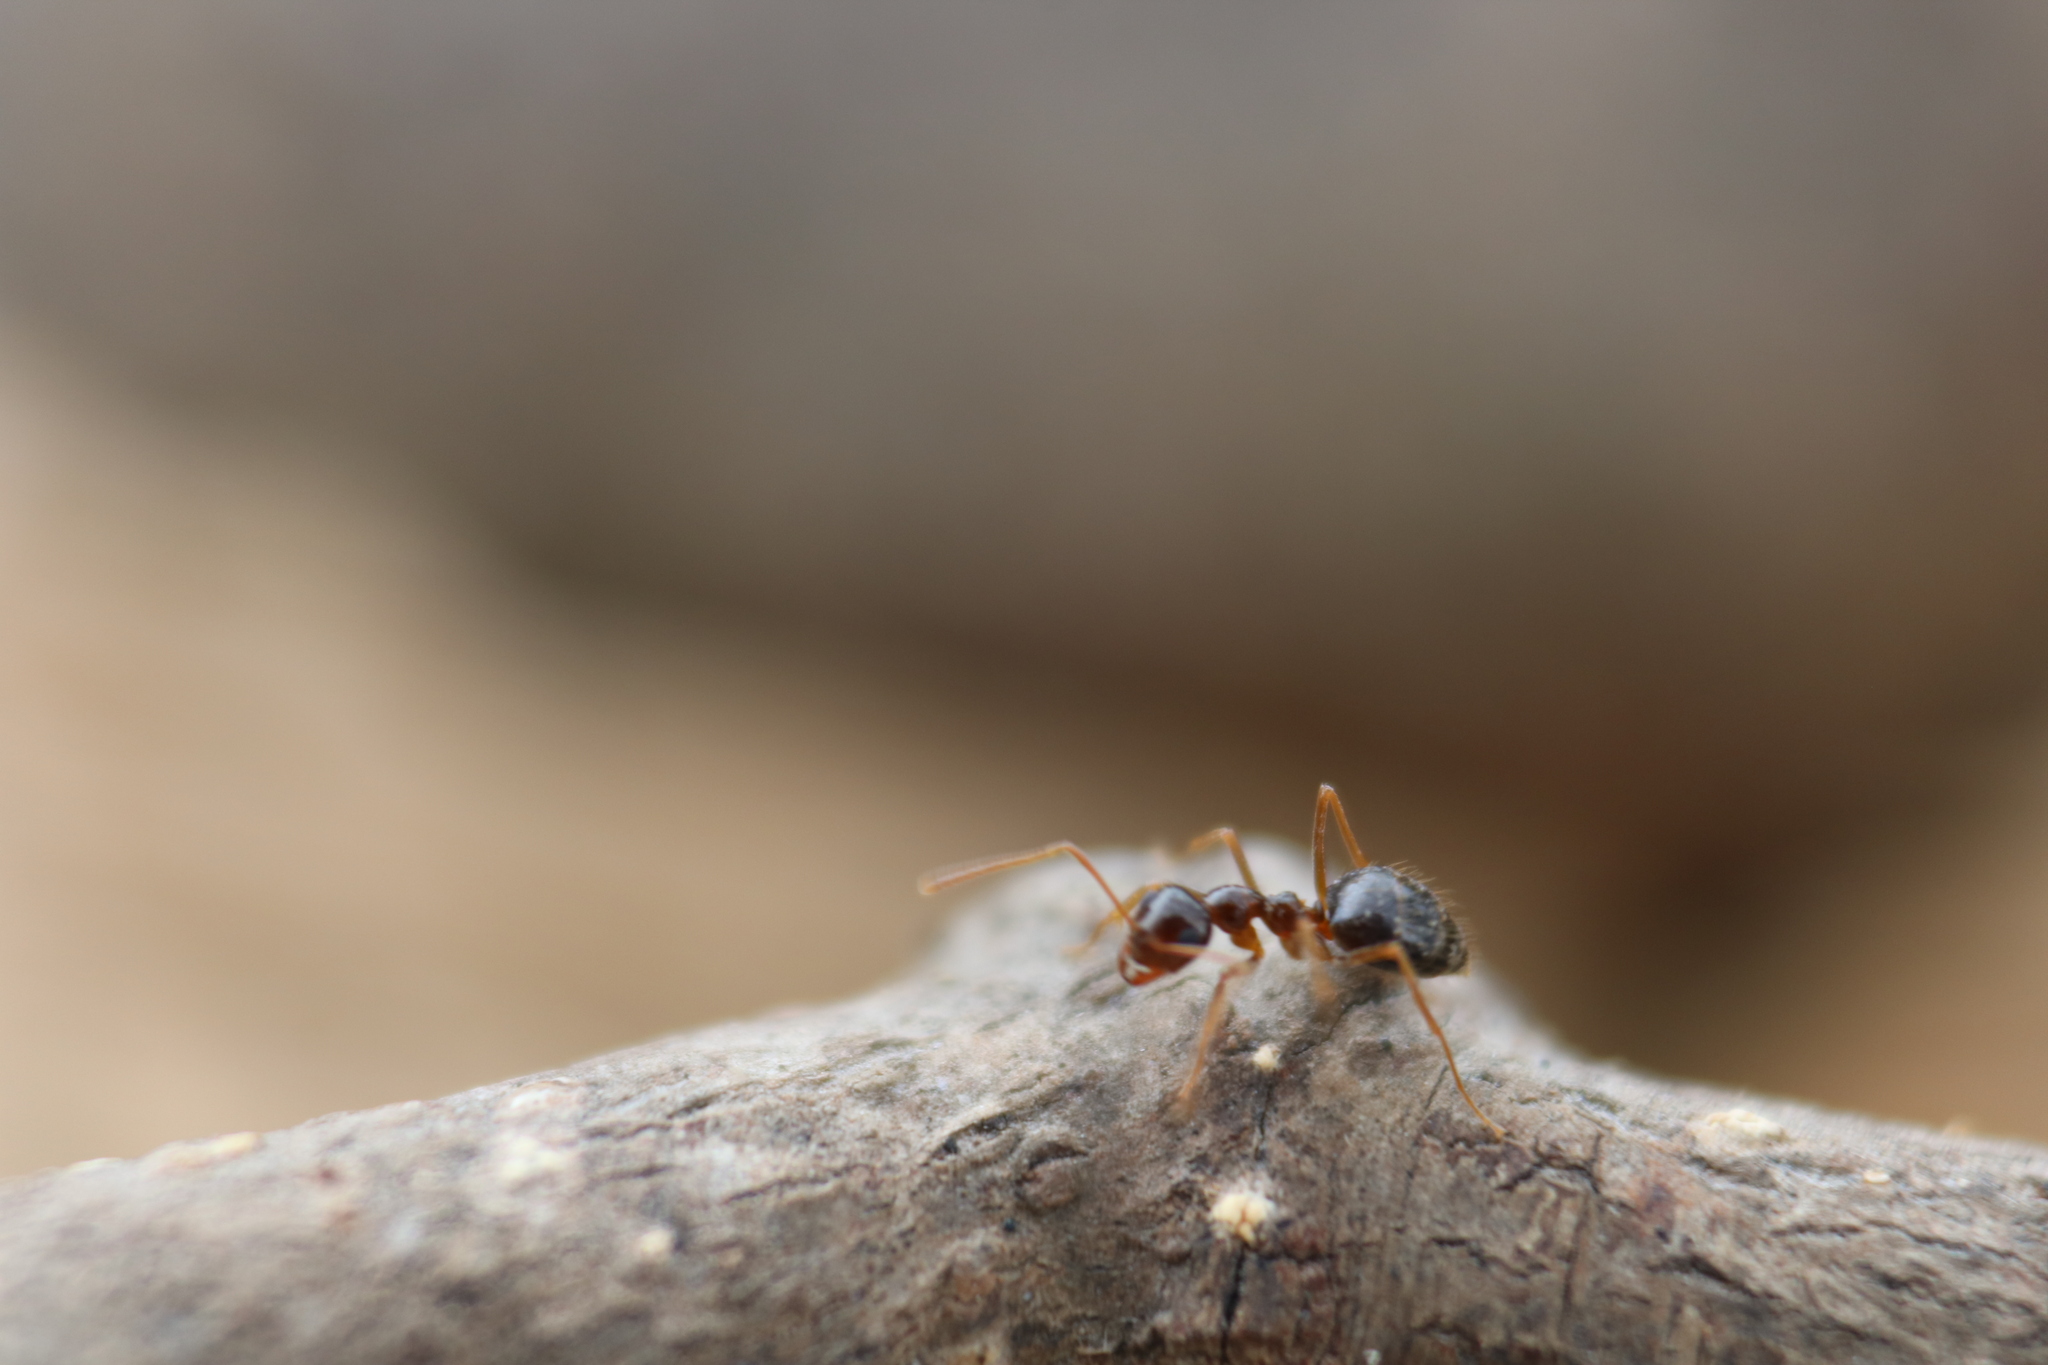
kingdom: Animalia
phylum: Arthropoda
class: Insecta
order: Hymenoptera
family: Formicidae
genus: Prenolepis
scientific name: Prenolepis imparis
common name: Small honey ant
